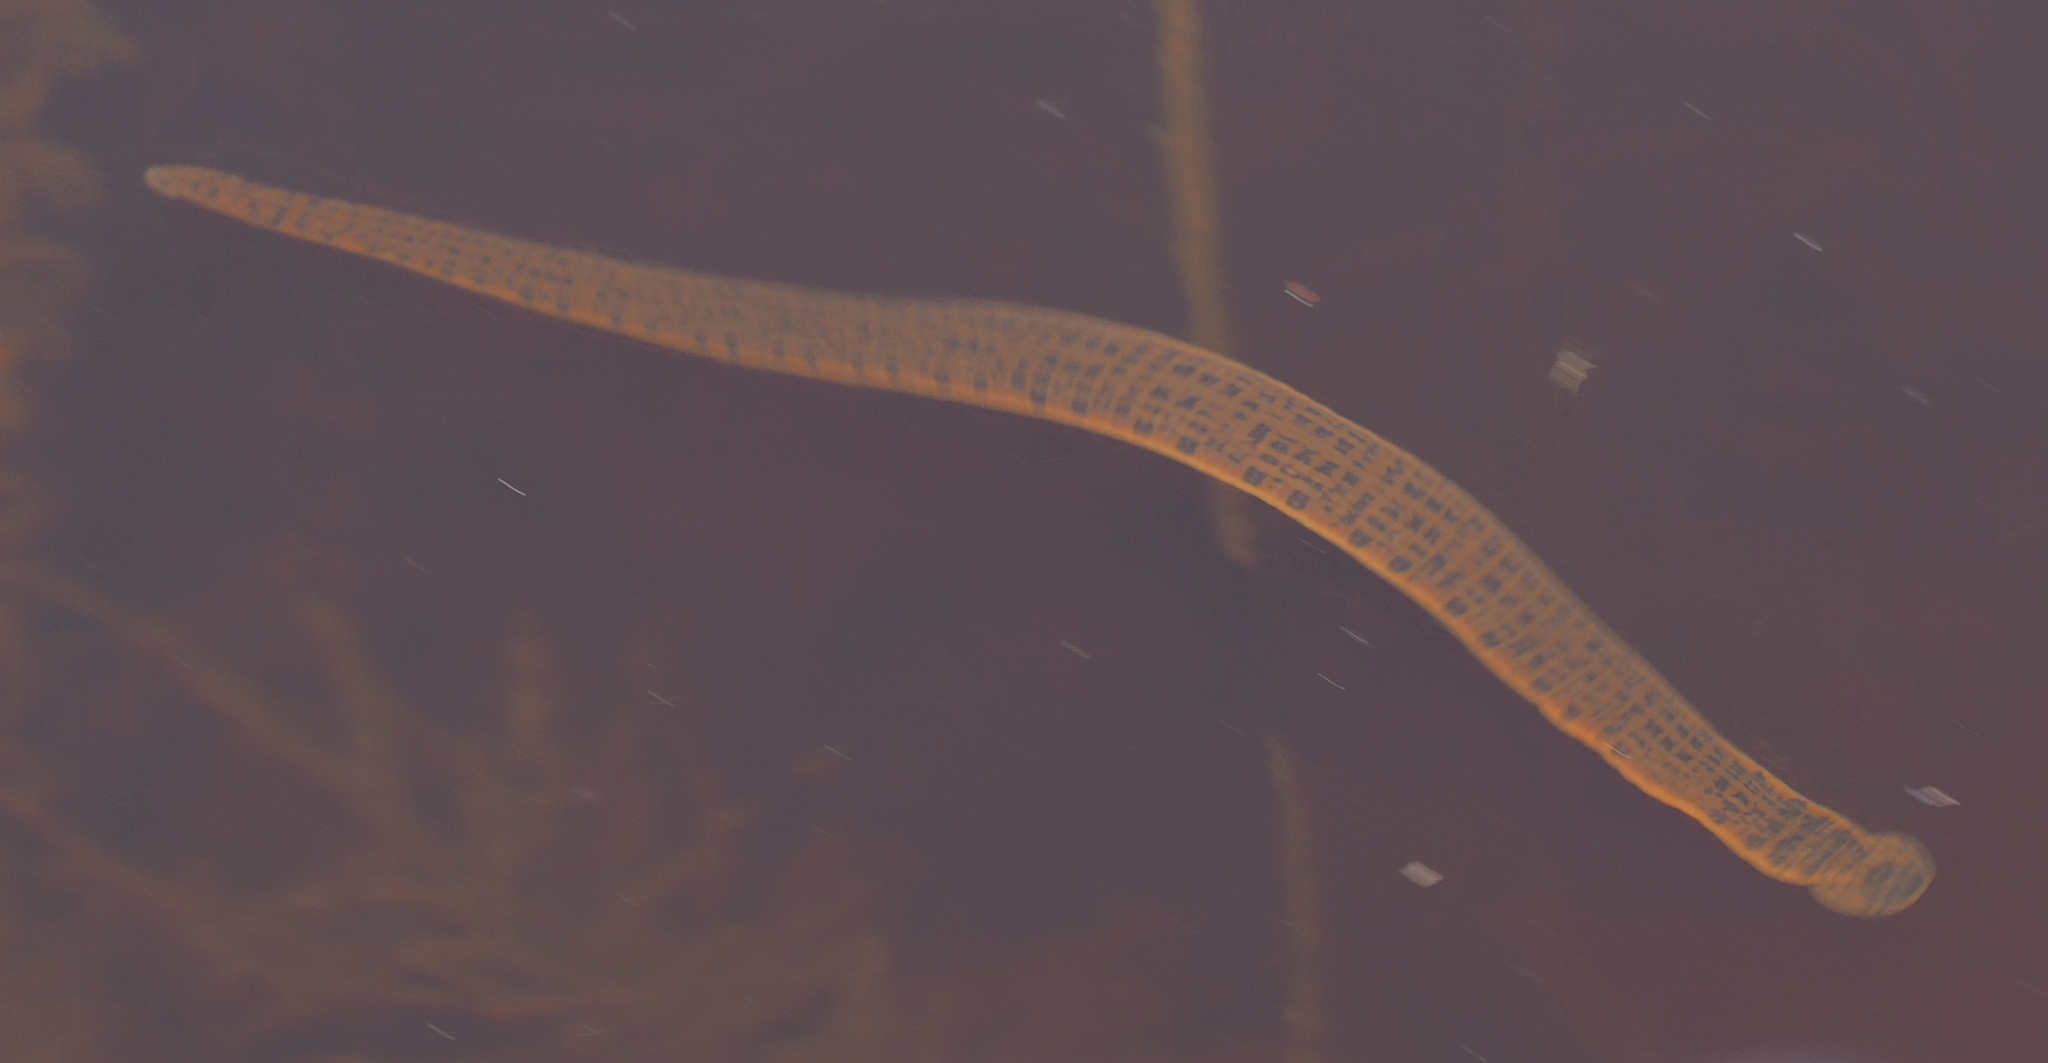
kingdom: Animalia
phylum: Annelida
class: Clitellata
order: Arhynchobdellida
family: Hirudinidae
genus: Asiaticobdella
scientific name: Asiaticobdella fenestrata
